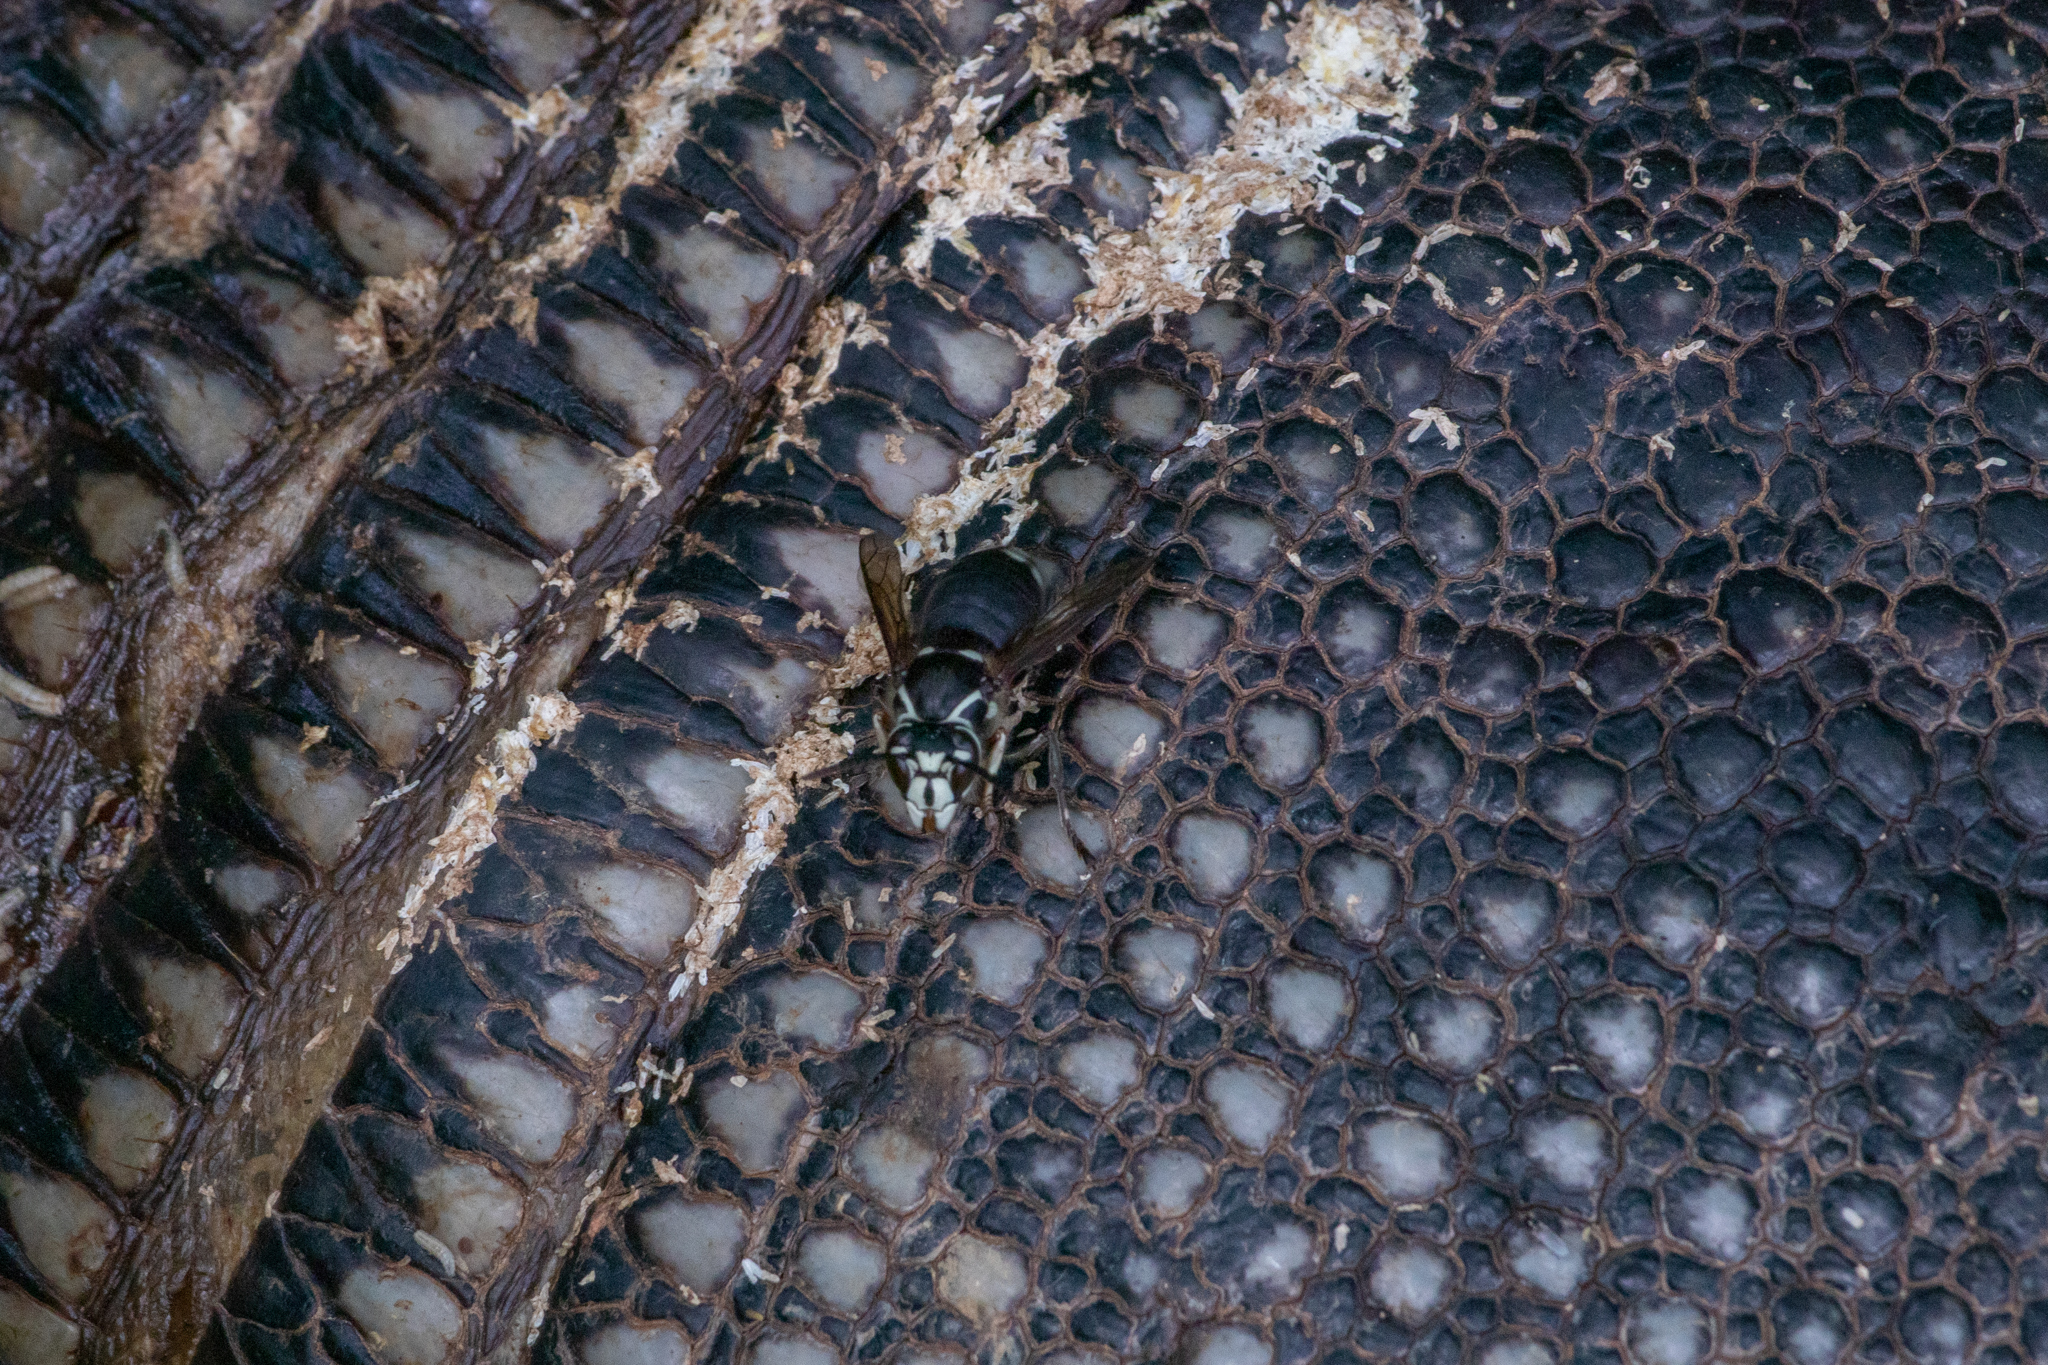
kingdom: Animalia
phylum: Arthropoda
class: Insecta
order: Hymenoptera
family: Vespidae
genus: Dolichovespula
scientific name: Dolichovespula maculata
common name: Bald-faced hornet
